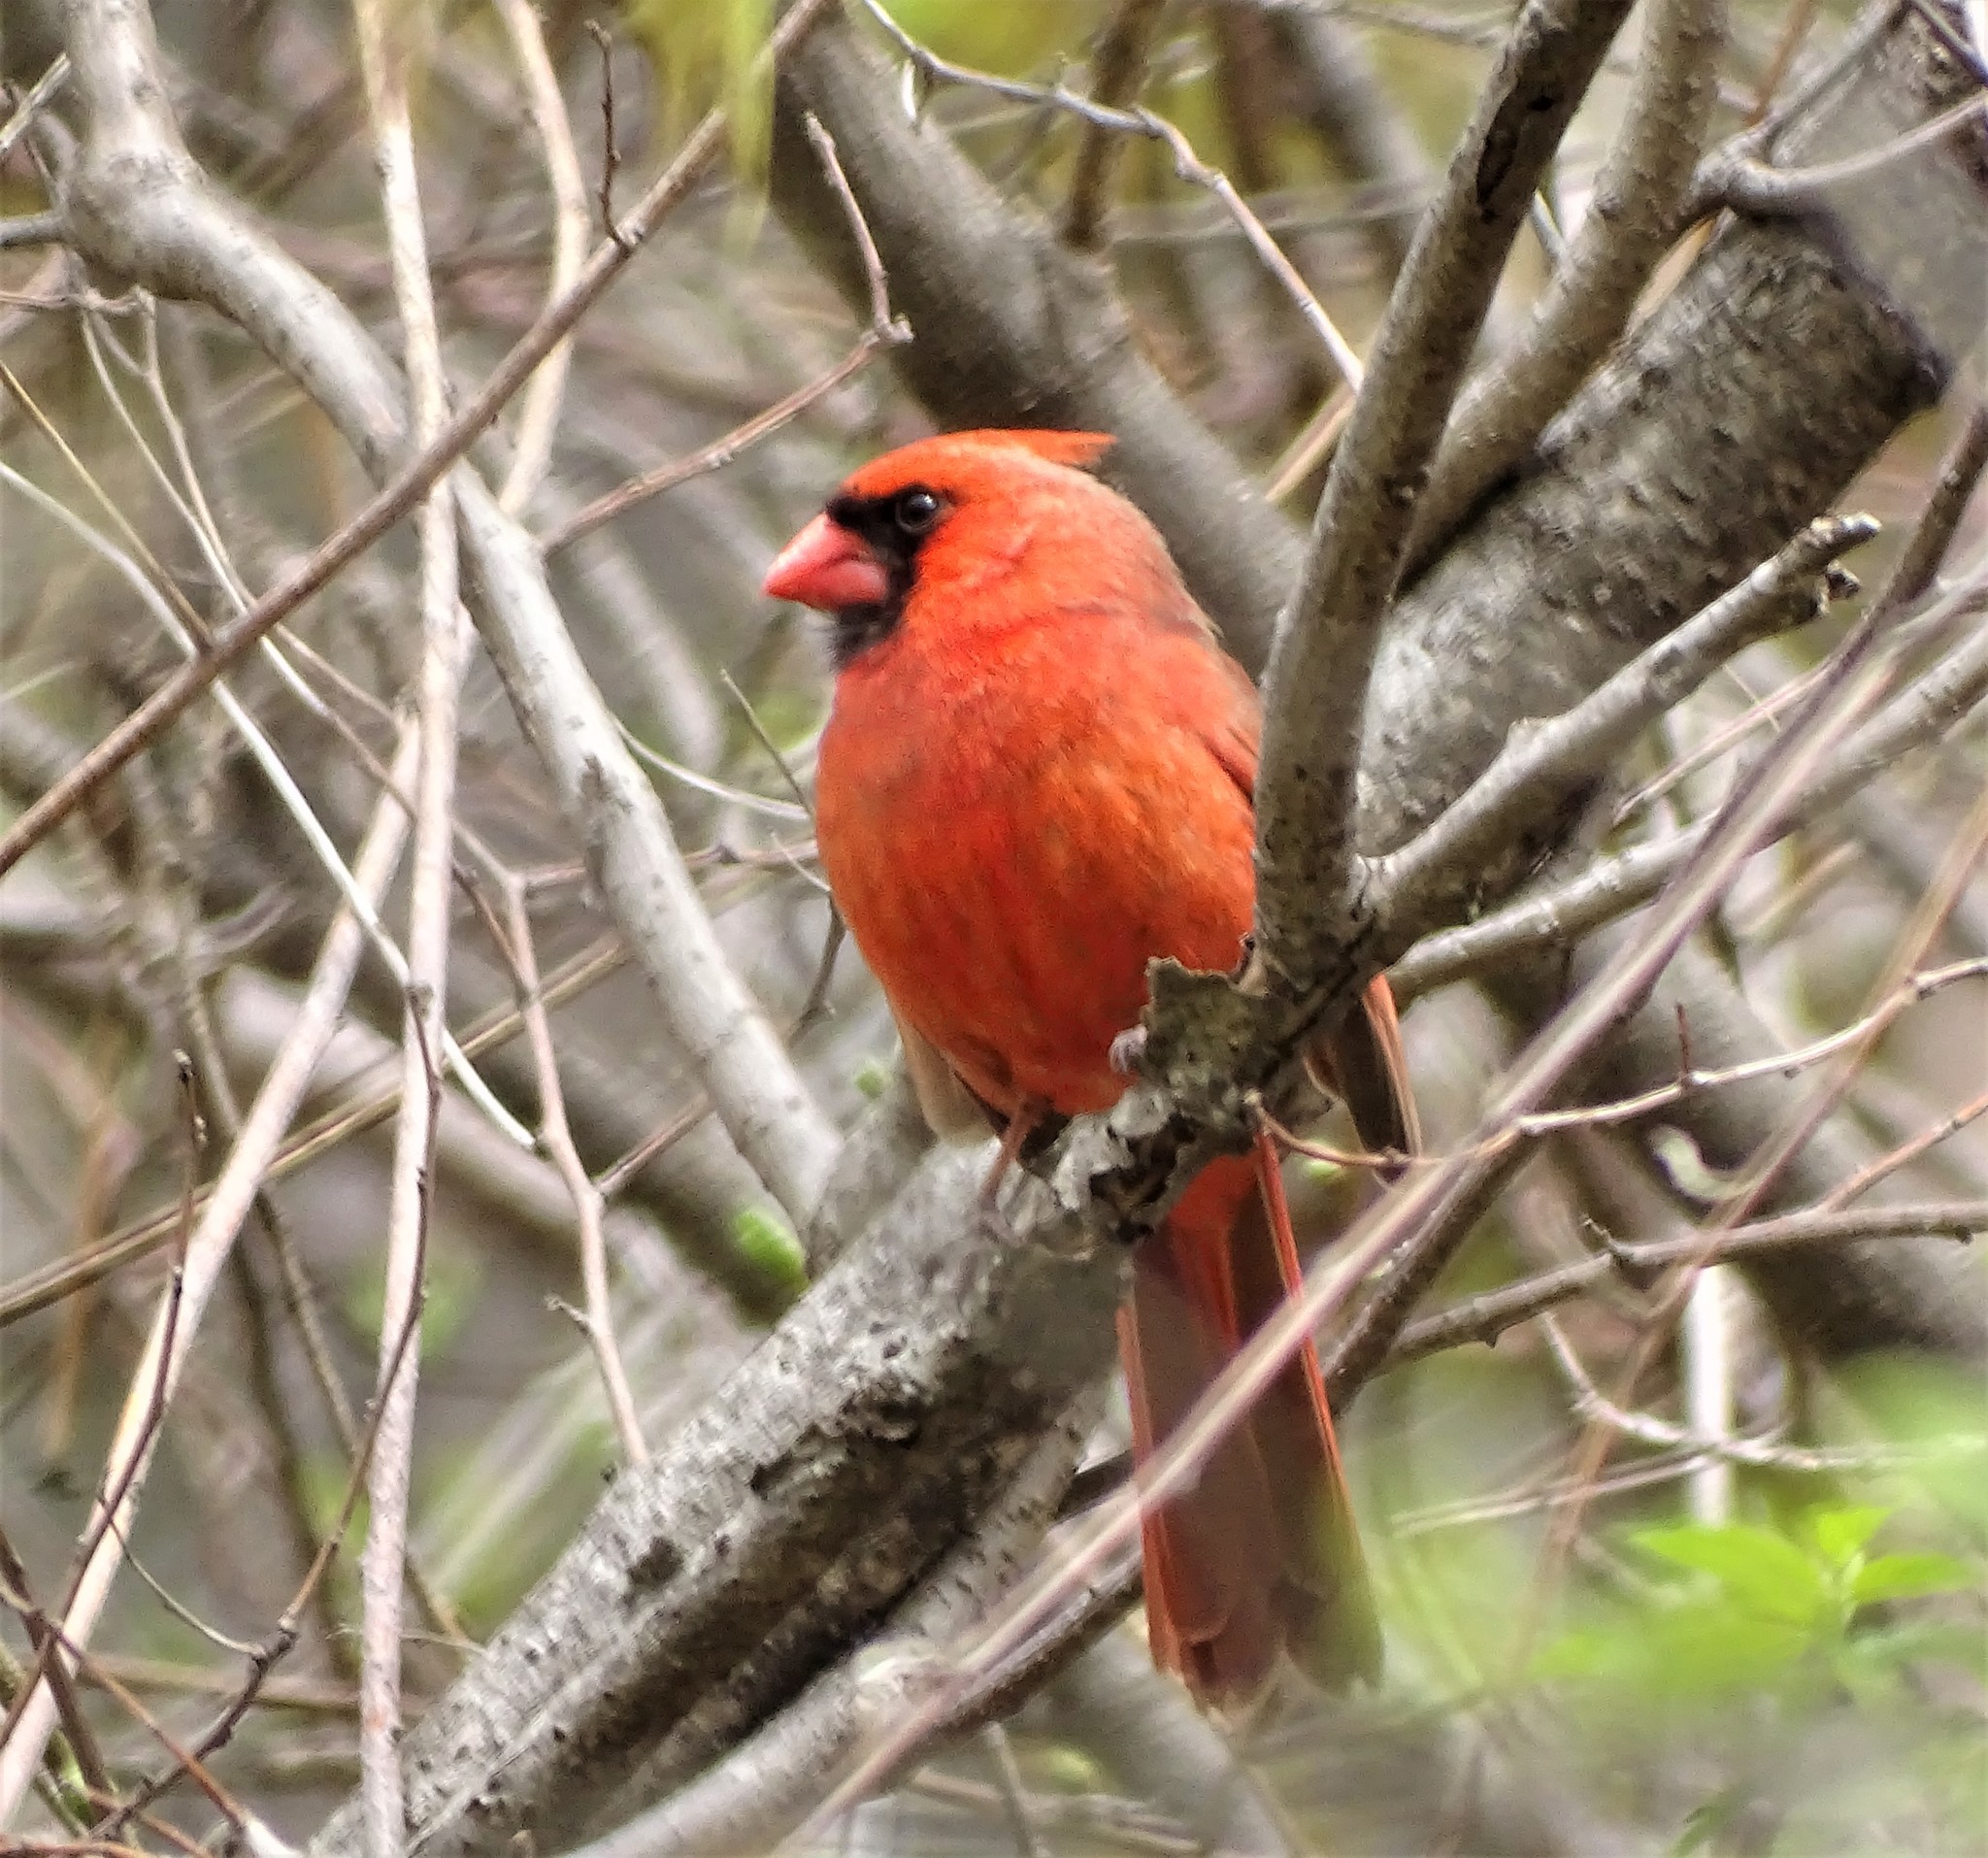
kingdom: Animalia
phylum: Chordata
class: Aves
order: Passeriformes
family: Cardinalidae
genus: Cardinalis
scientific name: Cardinalis cardinalis
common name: Northern cardinal
